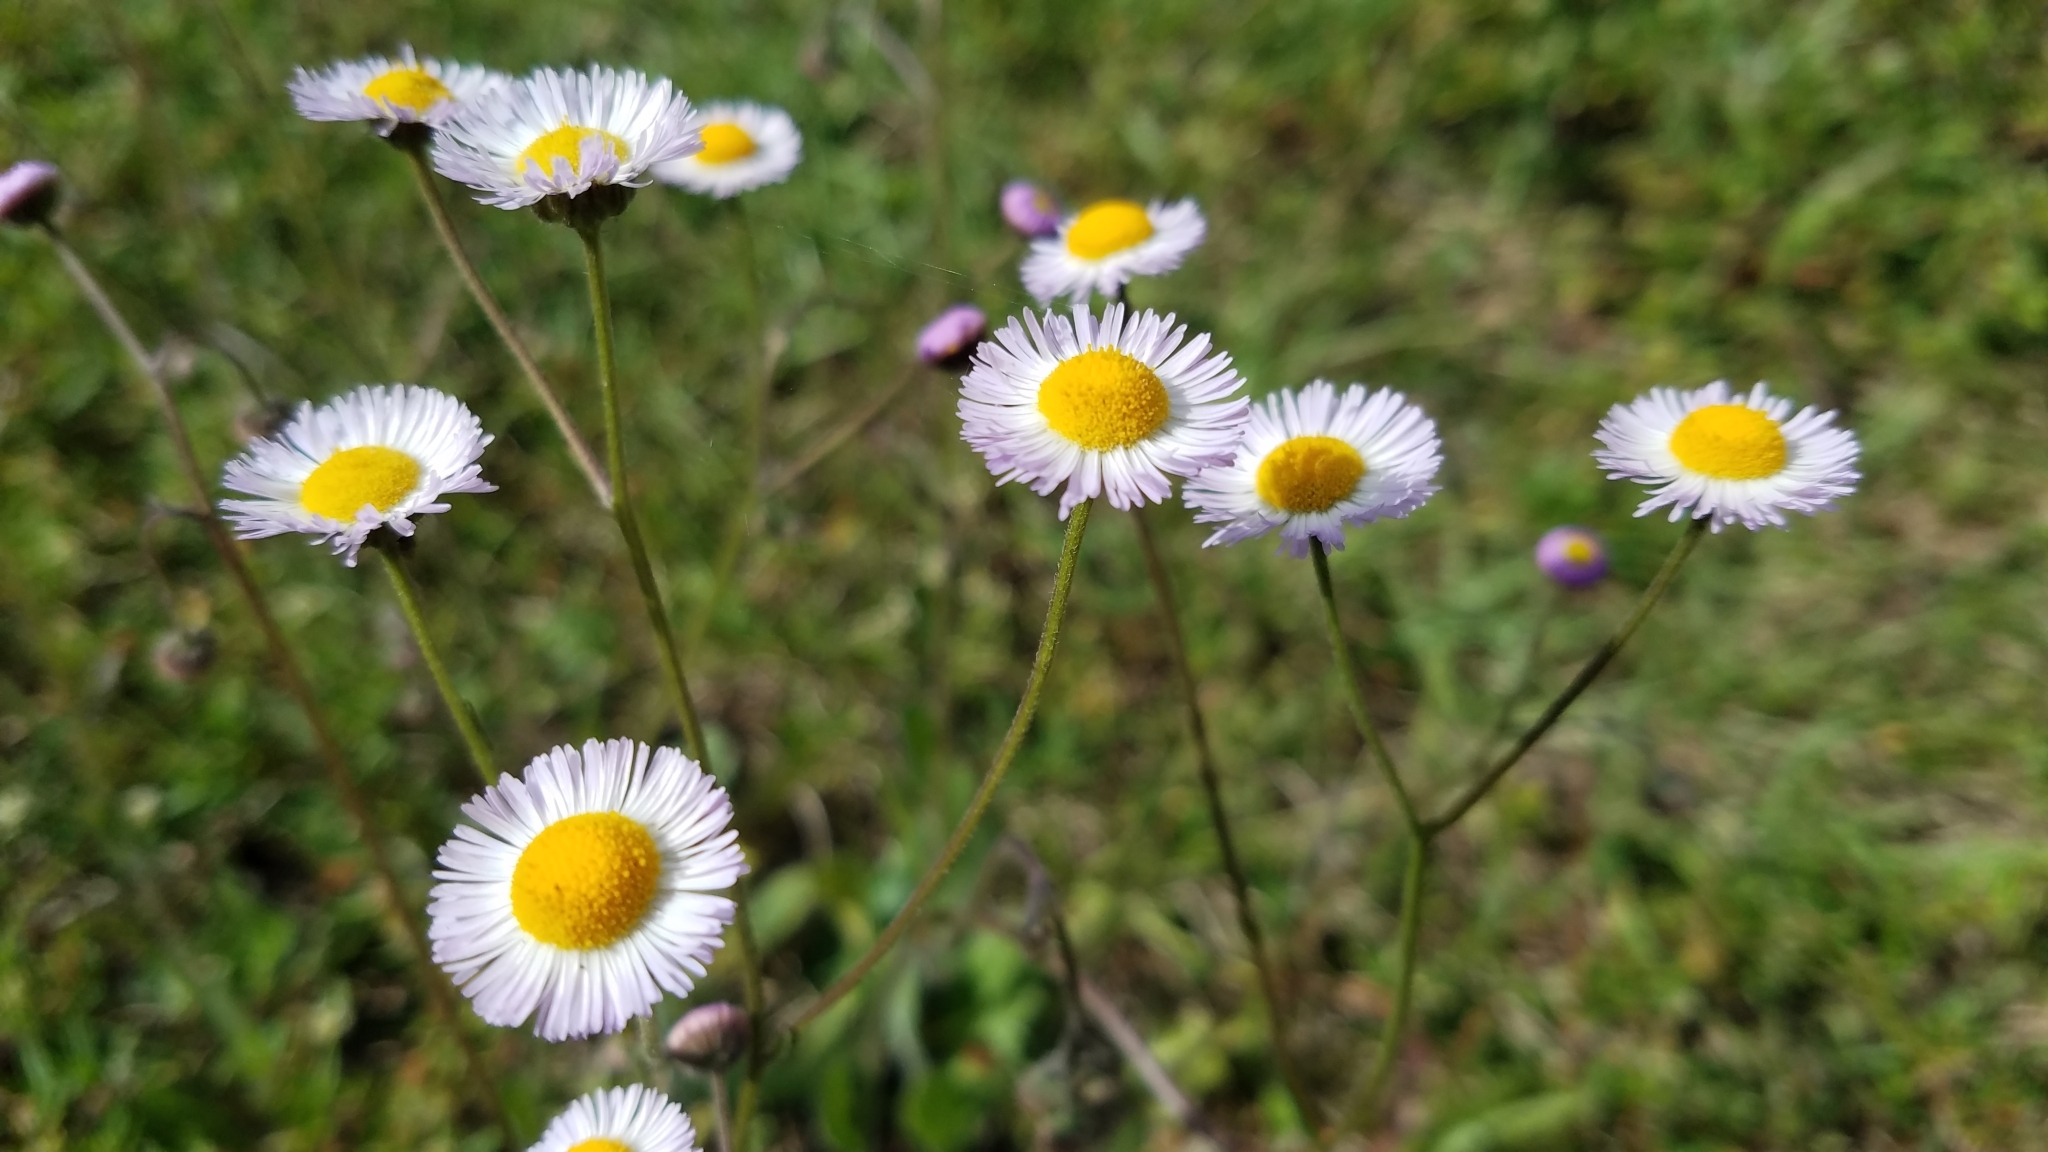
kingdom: Plantae
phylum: Tracheophyta
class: Magnoliopsida
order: Asterales
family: Asteraceae
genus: Erigeron
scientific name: Erigeron quercifolius
